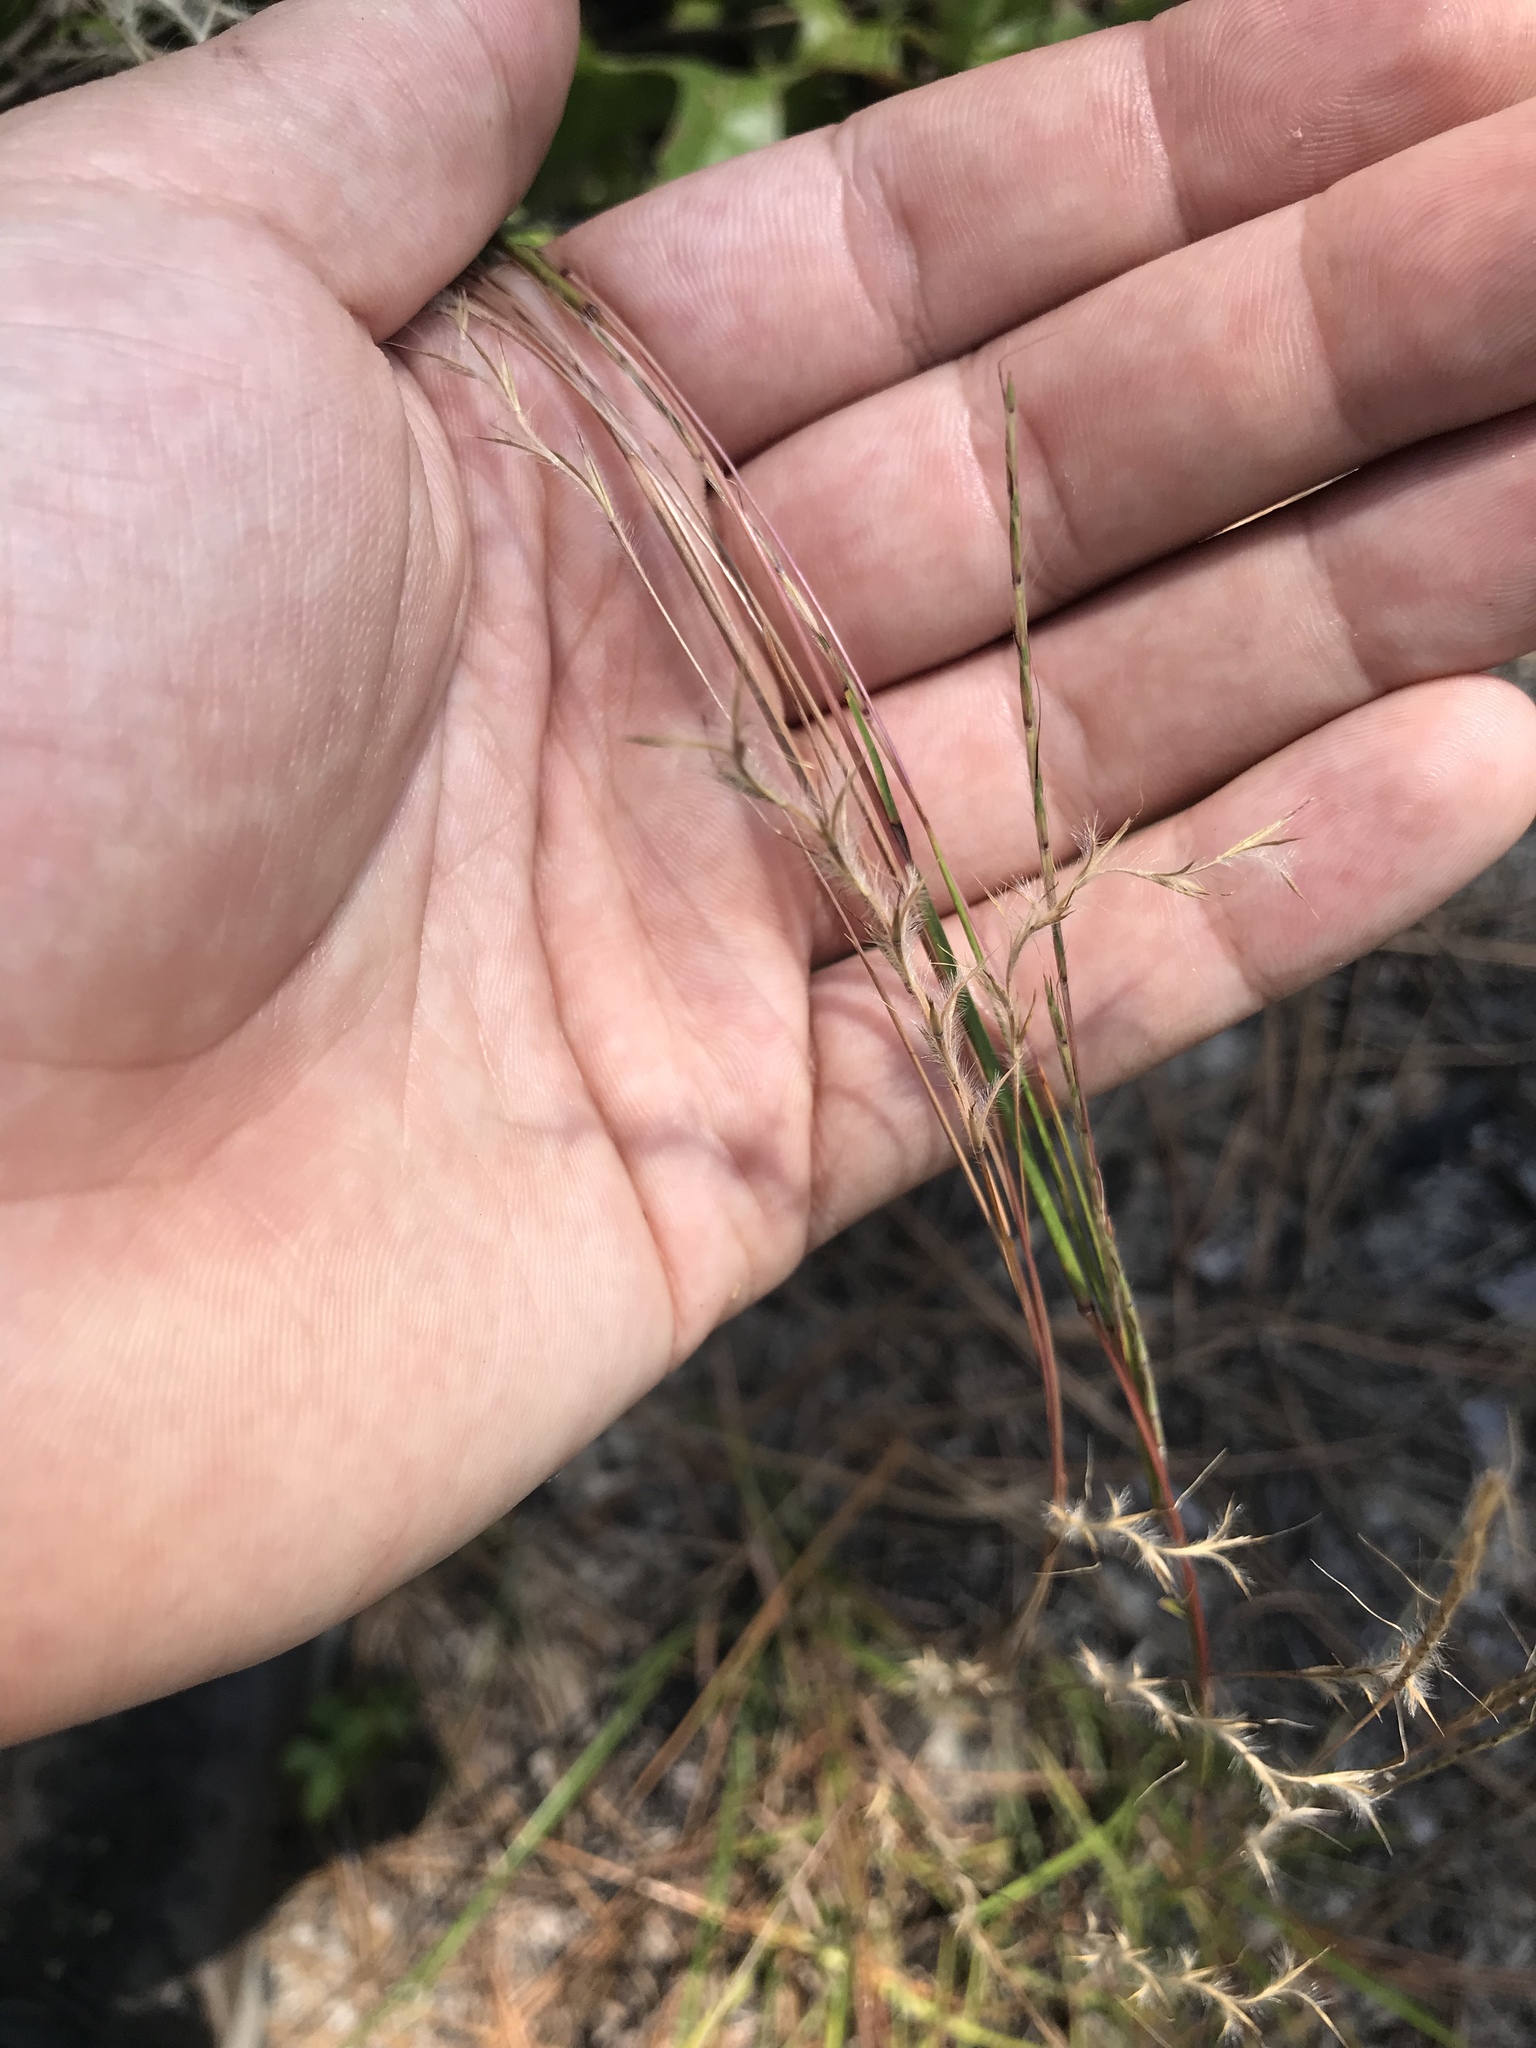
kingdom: Plantae
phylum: Tracheophyta
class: Liliopsida
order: Poales
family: Poaceae
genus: Schizachyrium
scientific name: Schizachyrium scoparium
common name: Little bluestem
